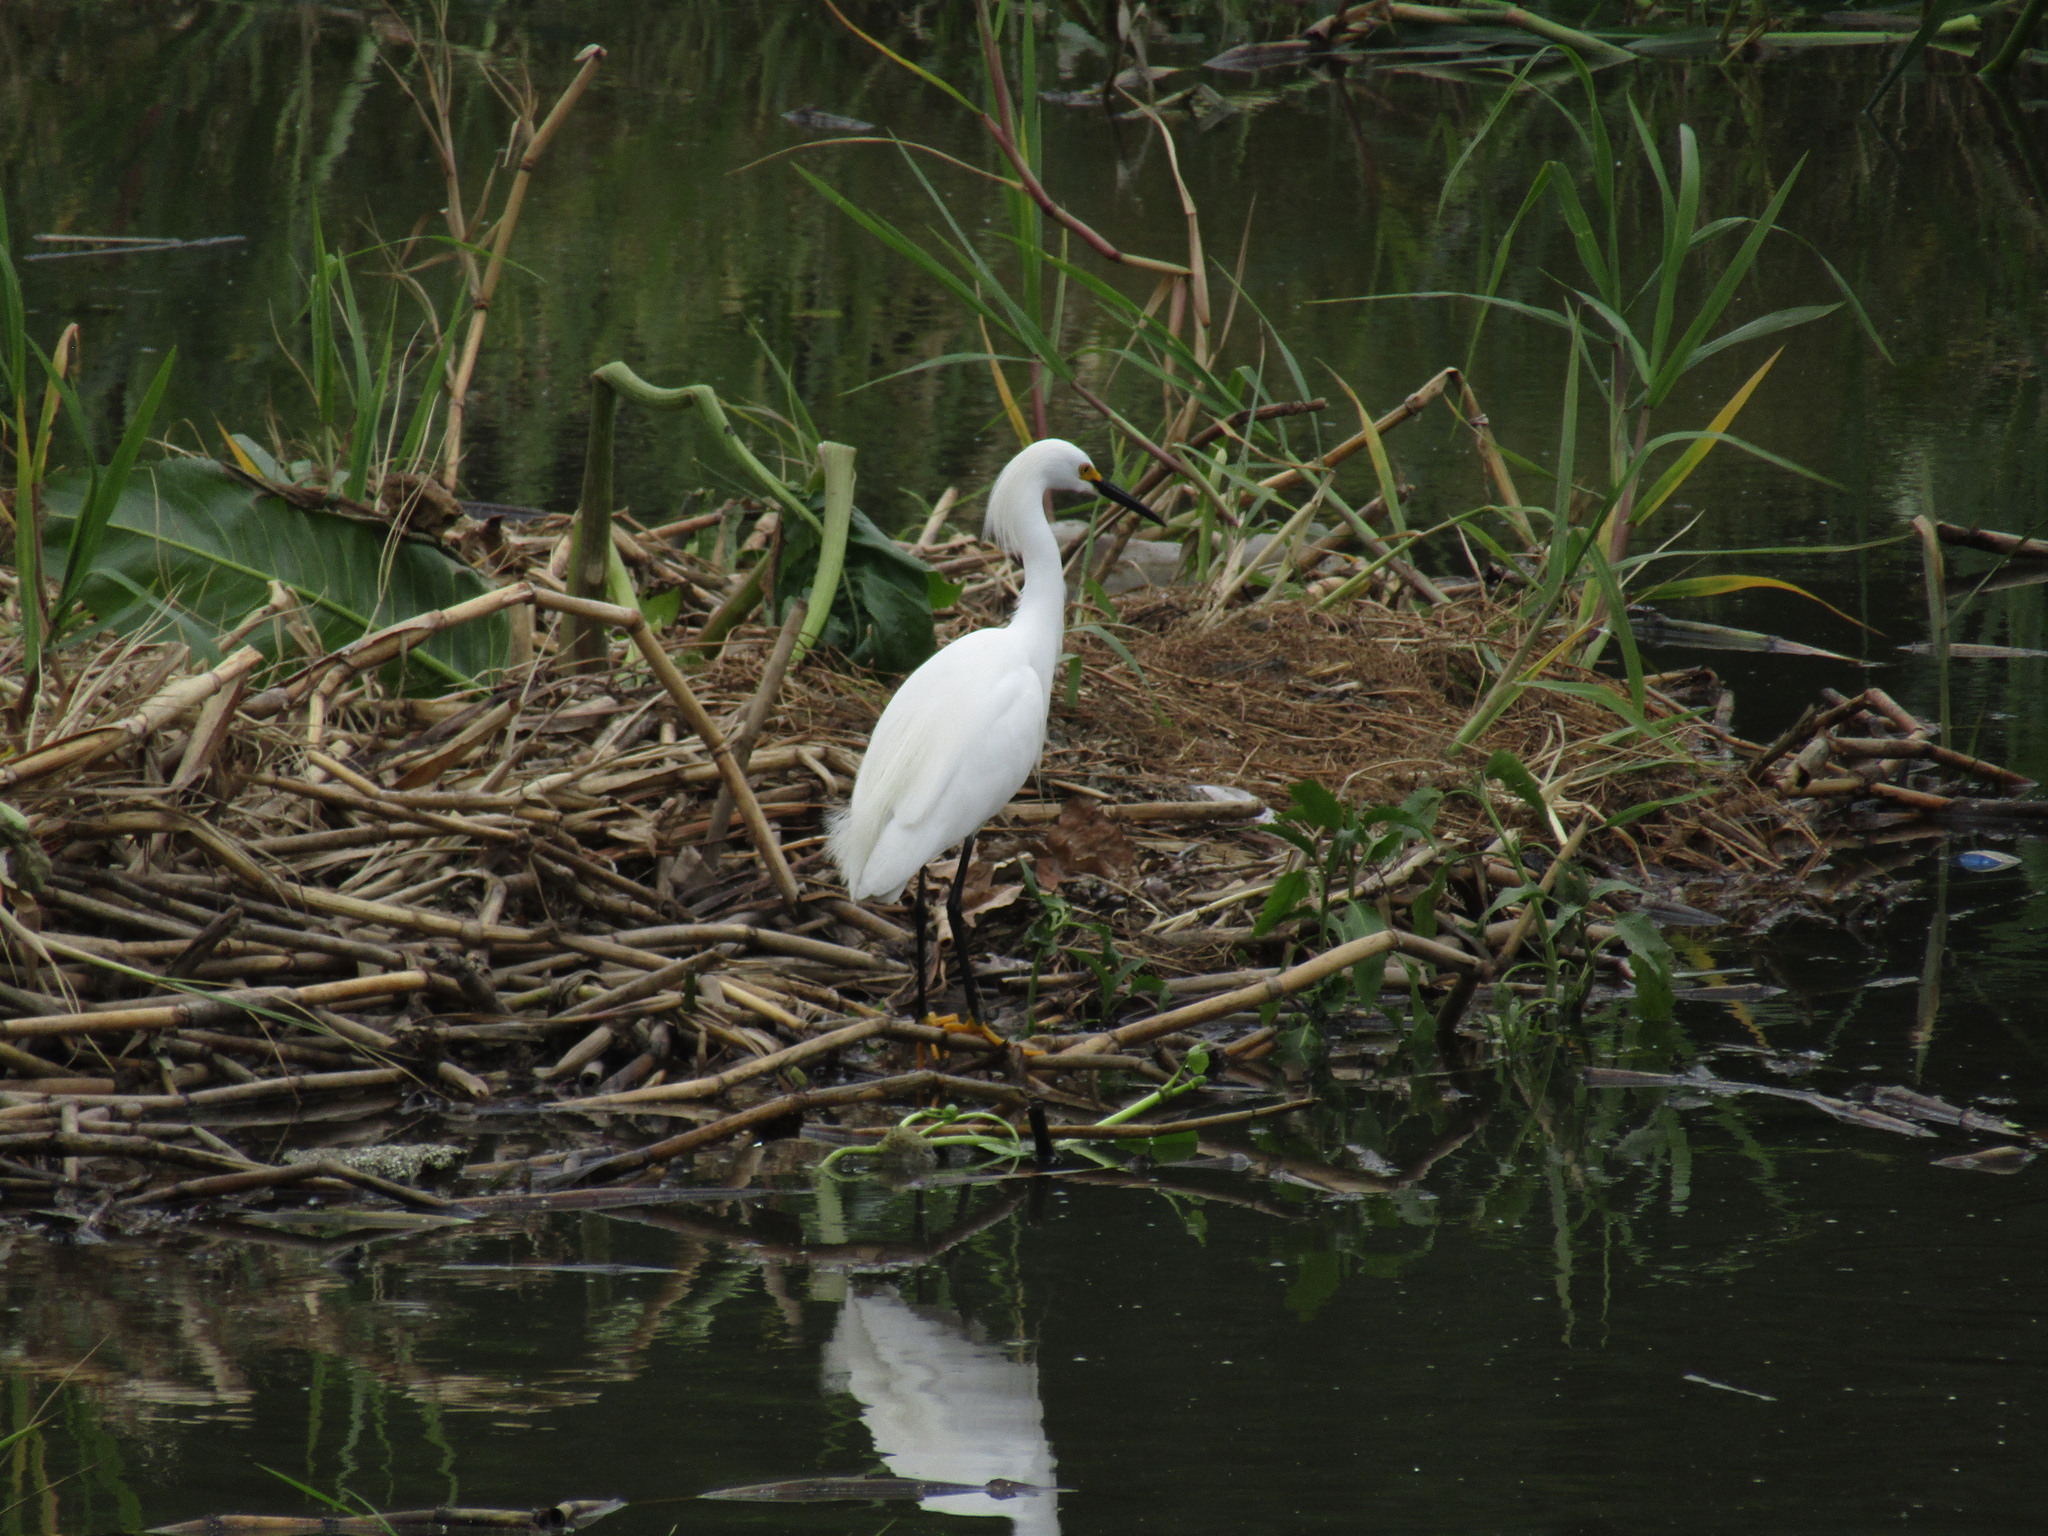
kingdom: Animalia
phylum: Chordata
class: Aves
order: Pelecaniformes
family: Ardeidae
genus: Egretta
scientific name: Egretta thula
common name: Snowy egret
